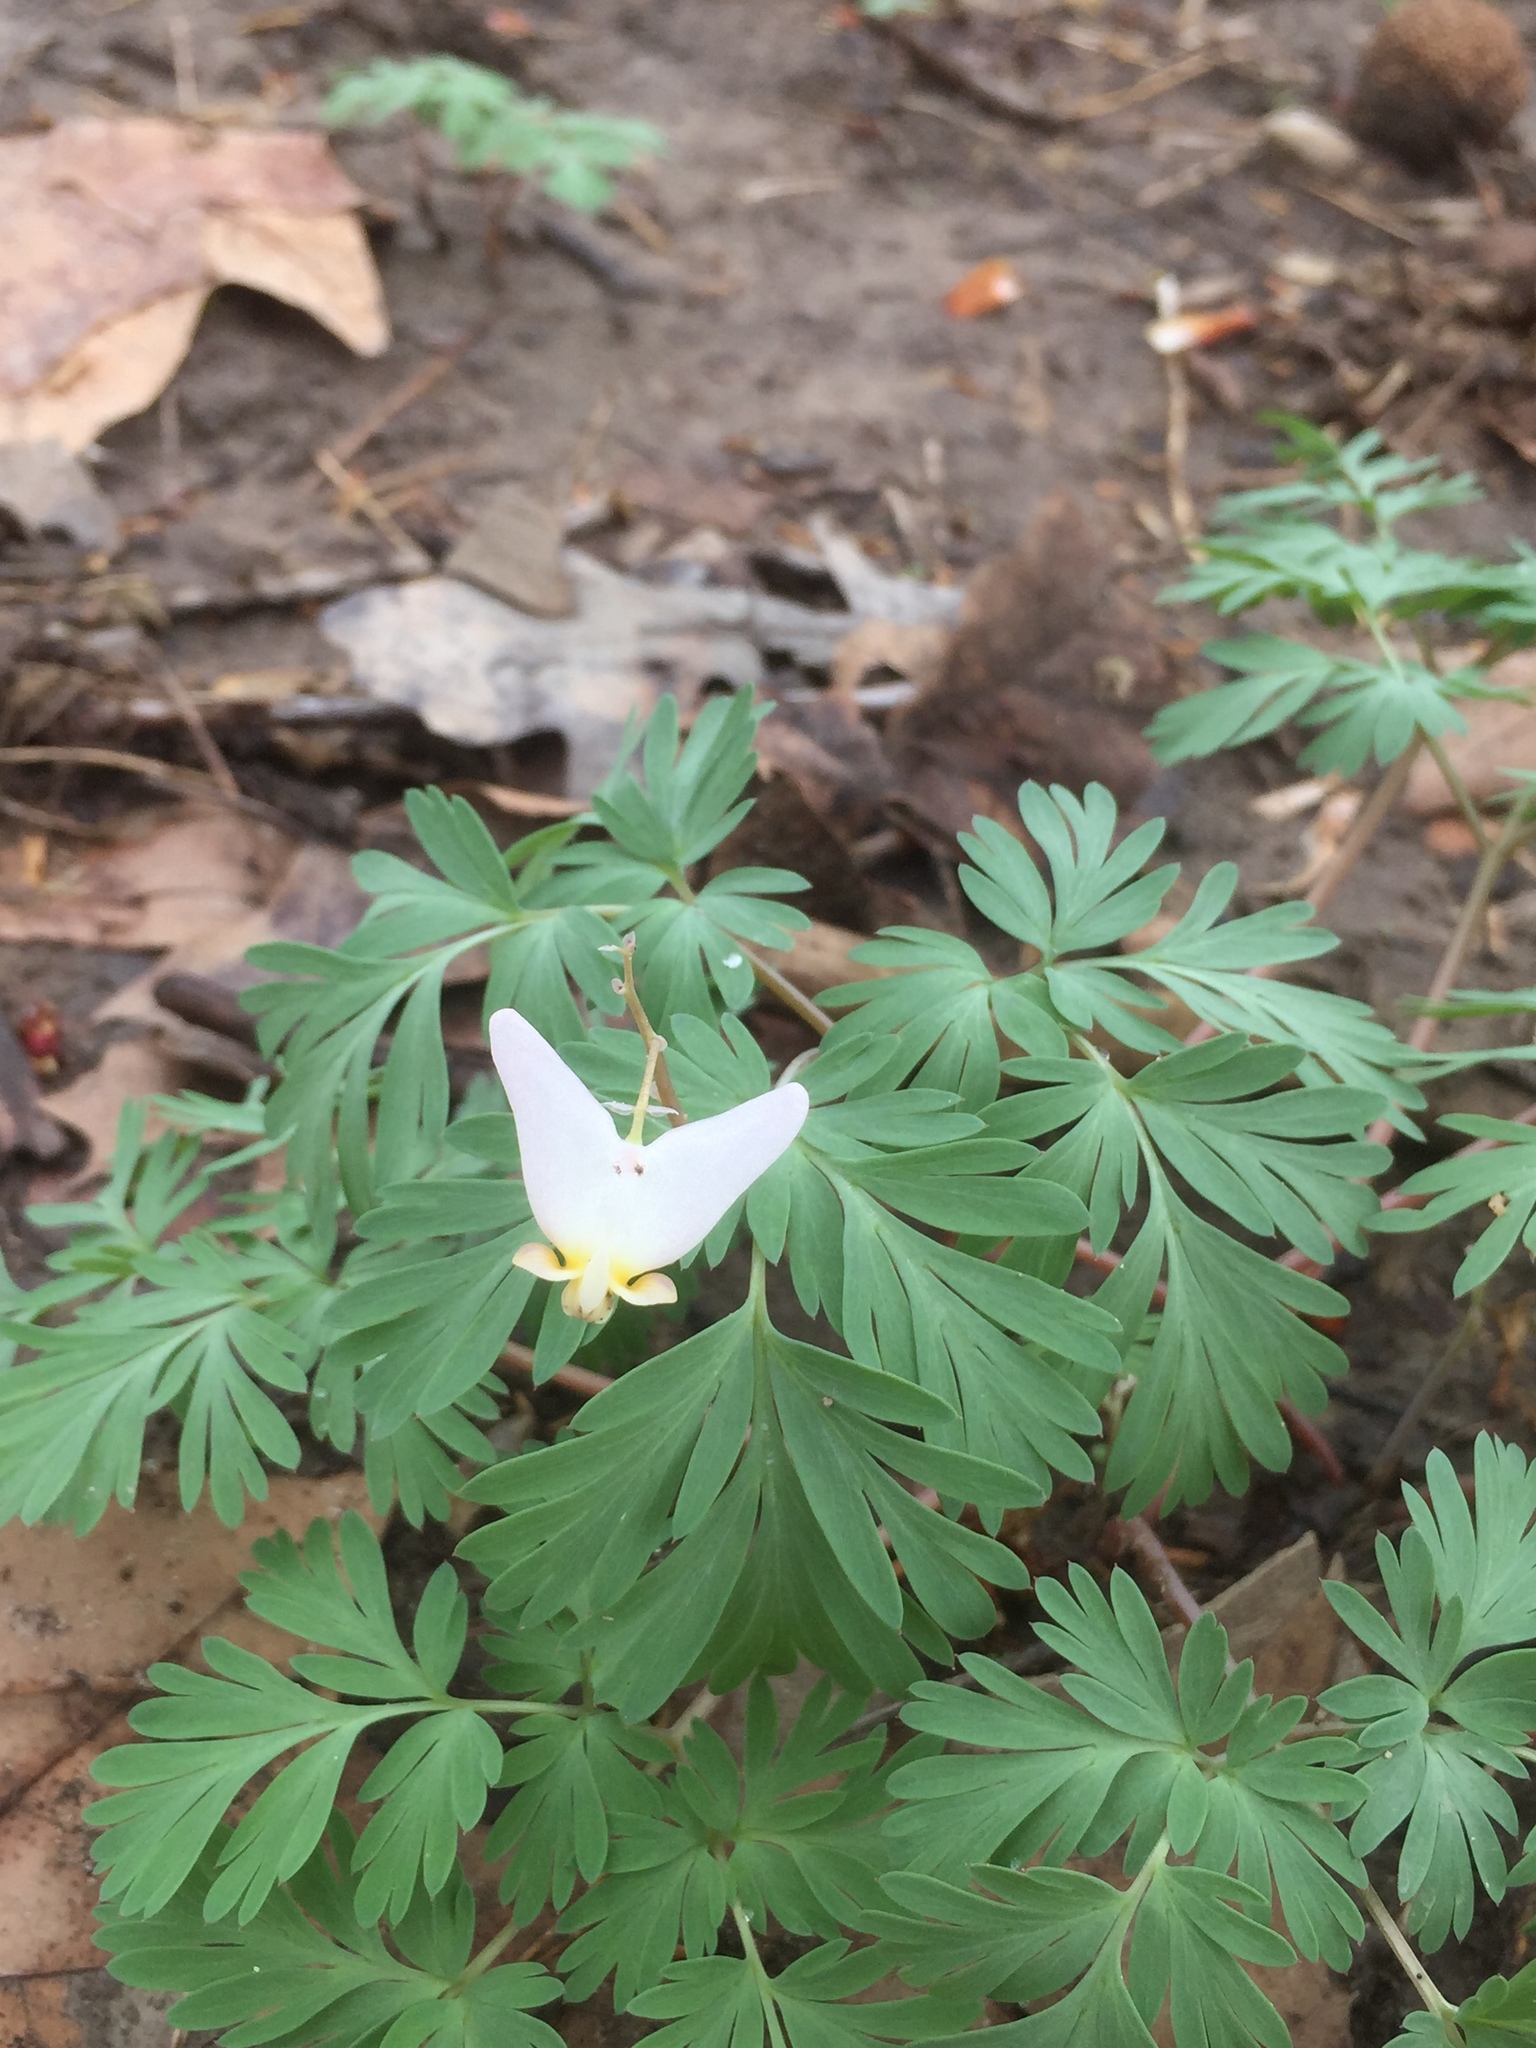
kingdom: Plantae
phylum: Tracheophyta
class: Magnoliopsida
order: Ranunculales
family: Papaveraceae
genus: Dicentra
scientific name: Dicentra cucullaria
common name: Dutchman's breeches
